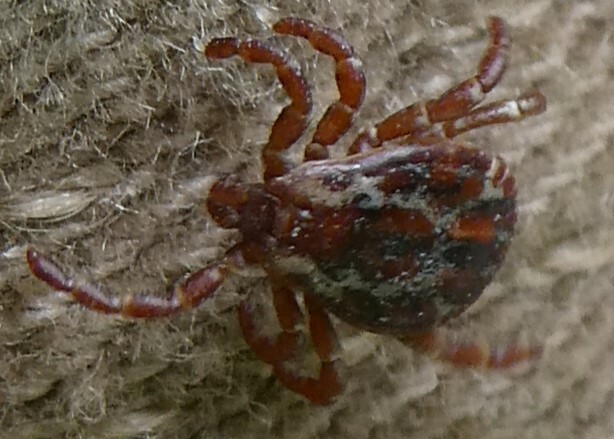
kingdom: Animalia
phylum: Arthropoda
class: Arachnida
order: Ixodida
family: Ixodidae
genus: Dermacentor
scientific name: Dermacentor variabilis
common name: American dog tick
